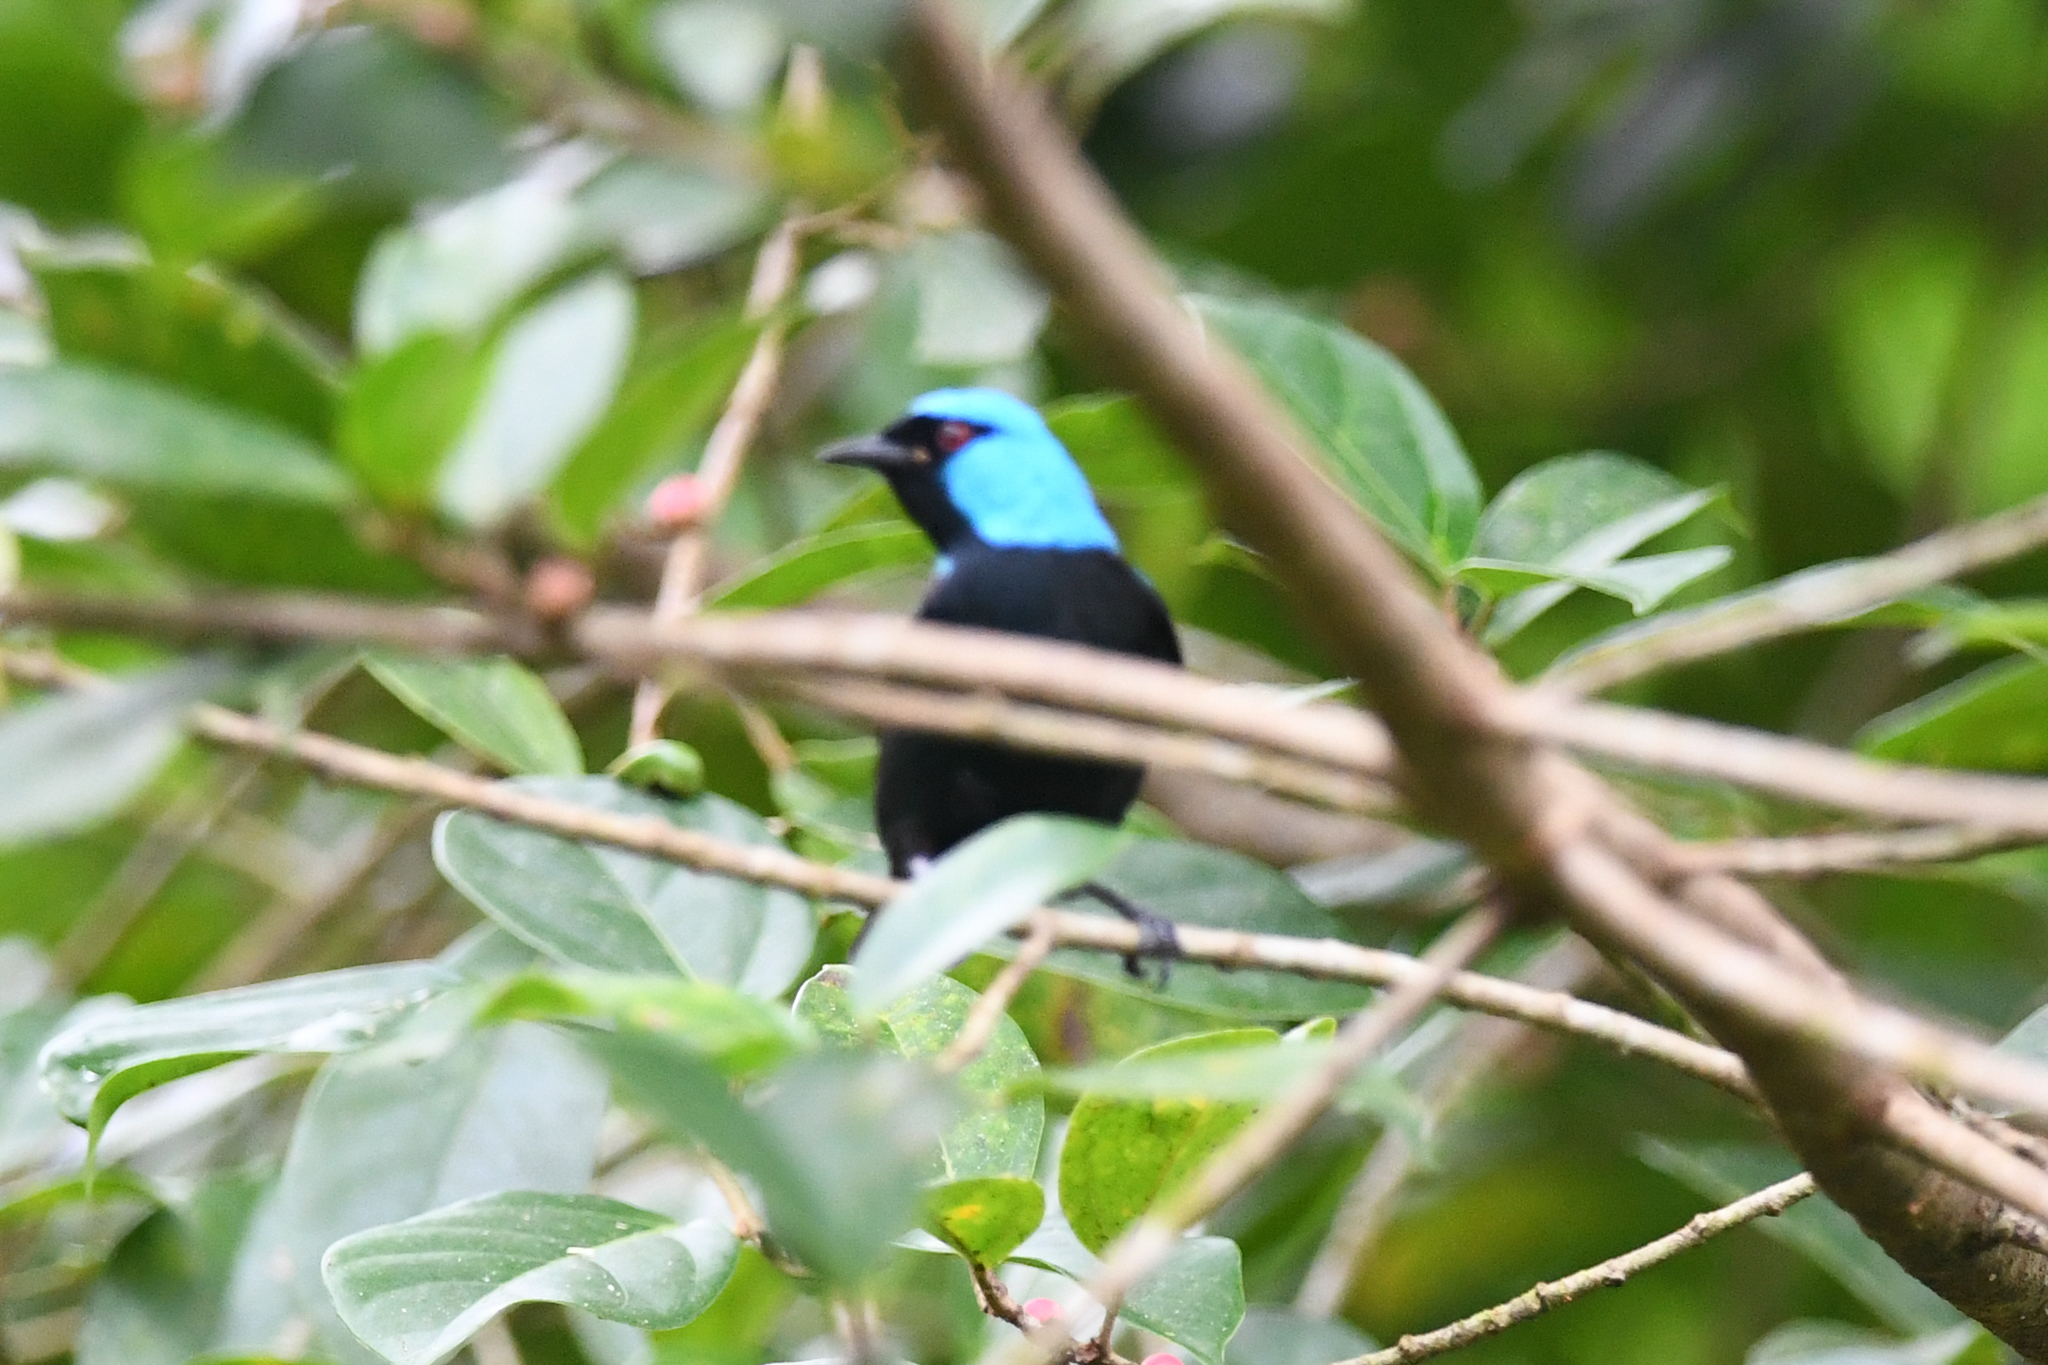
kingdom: Animalia
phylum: Chordata
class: Aves
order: Passeriformes
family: Thraupidae
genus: Dacnis
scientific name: Dacnis venusta
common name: Scarlet-thighed dacnis
